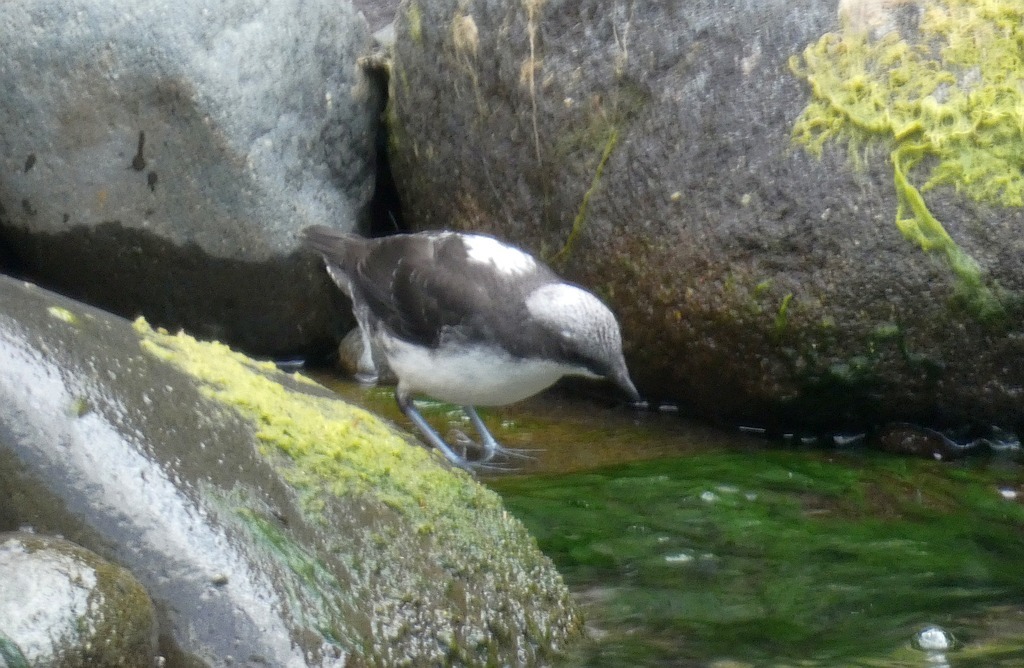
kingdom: Animalia
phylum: Chordata
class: Aves
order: Passeriformes
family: Cinclidae
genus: Cinclus
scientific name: Cinclus leucocephalus
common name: White-capped dipper
